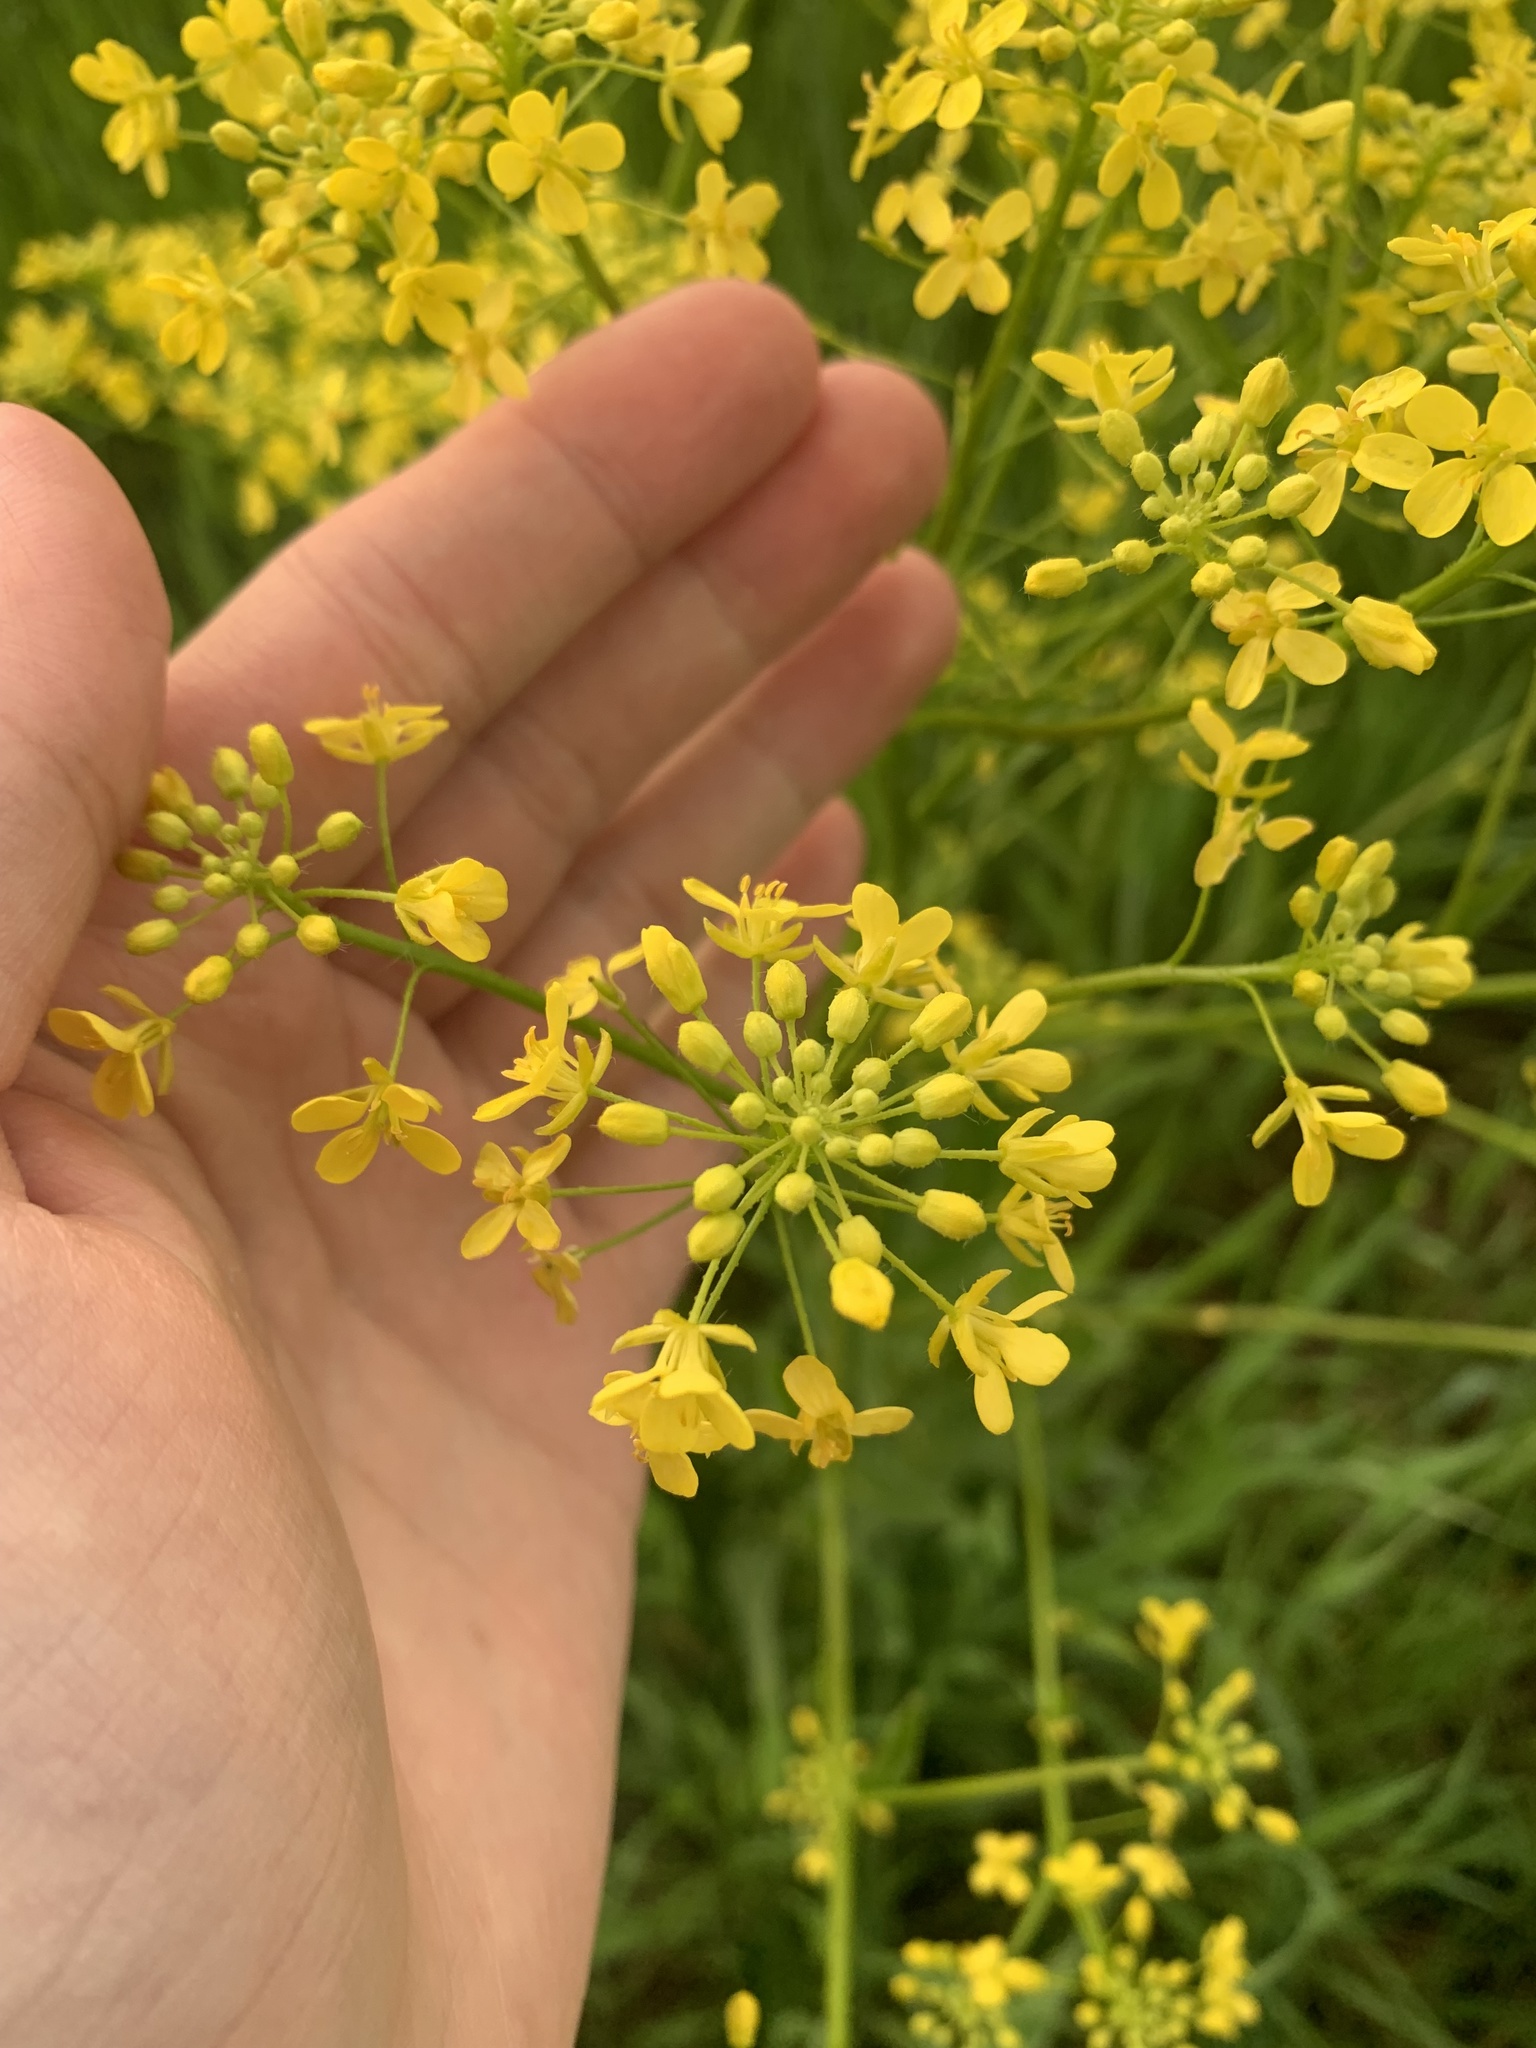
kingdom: Plantae
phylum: Tracheophyta
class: Magnoliopsida
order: Brassicales
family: Brassicaceae
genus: Bunias
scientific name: Bunias orientalis
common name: Warty-cabbage
